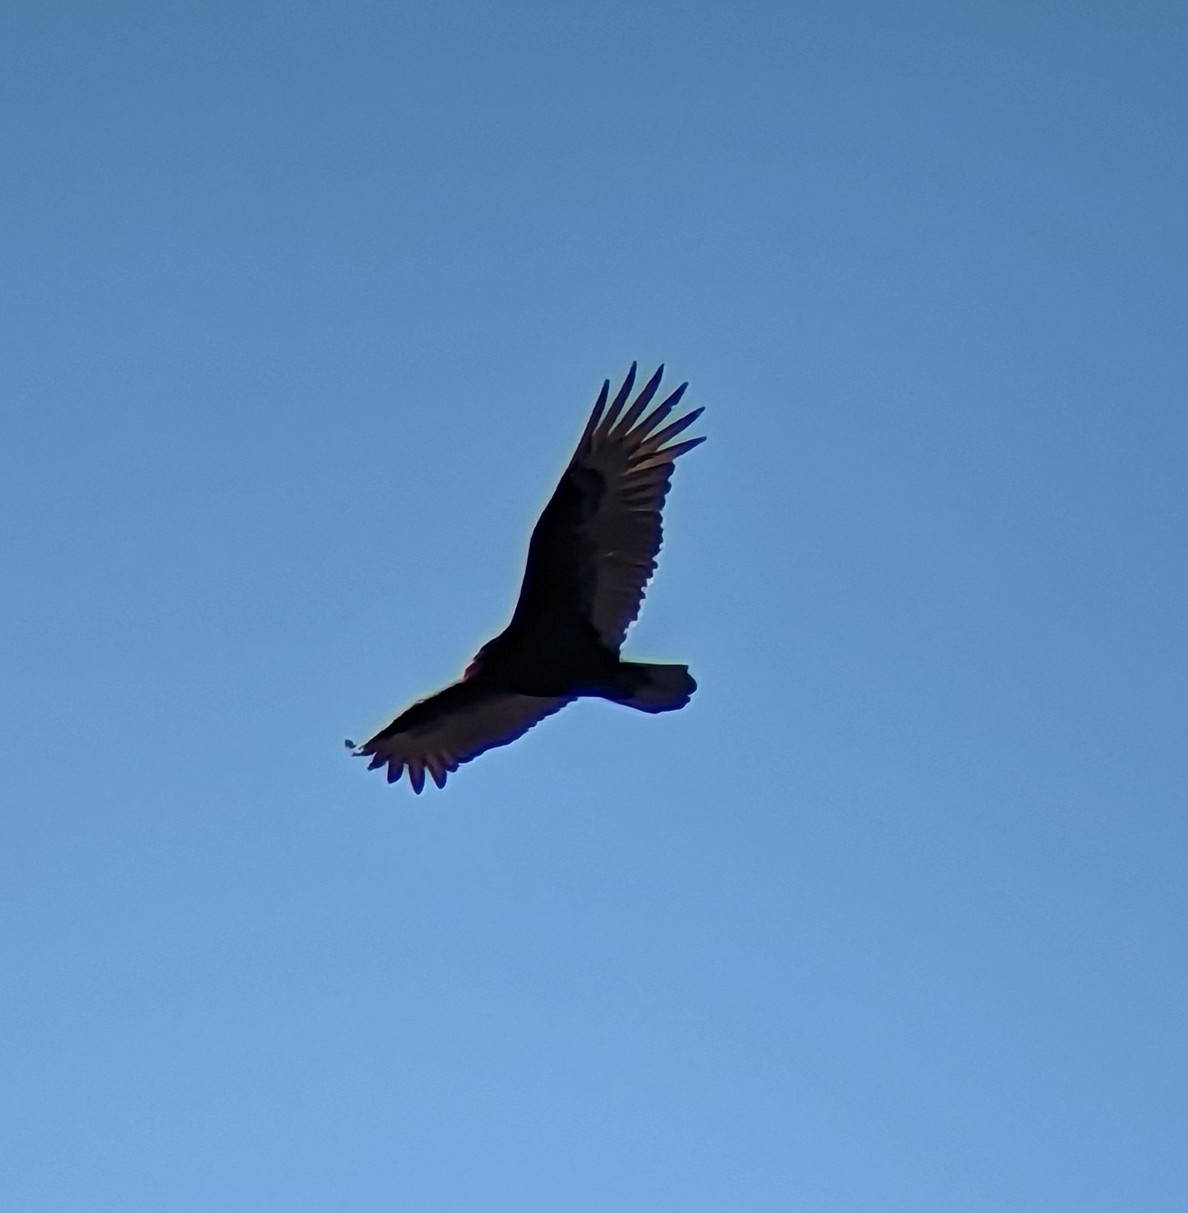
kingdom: Animalia
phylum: Chordata
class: Aves
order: Accipitriformes
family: Cathartidae
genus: Cathartes
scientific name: Cathartes aura
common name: Turkey vulture
